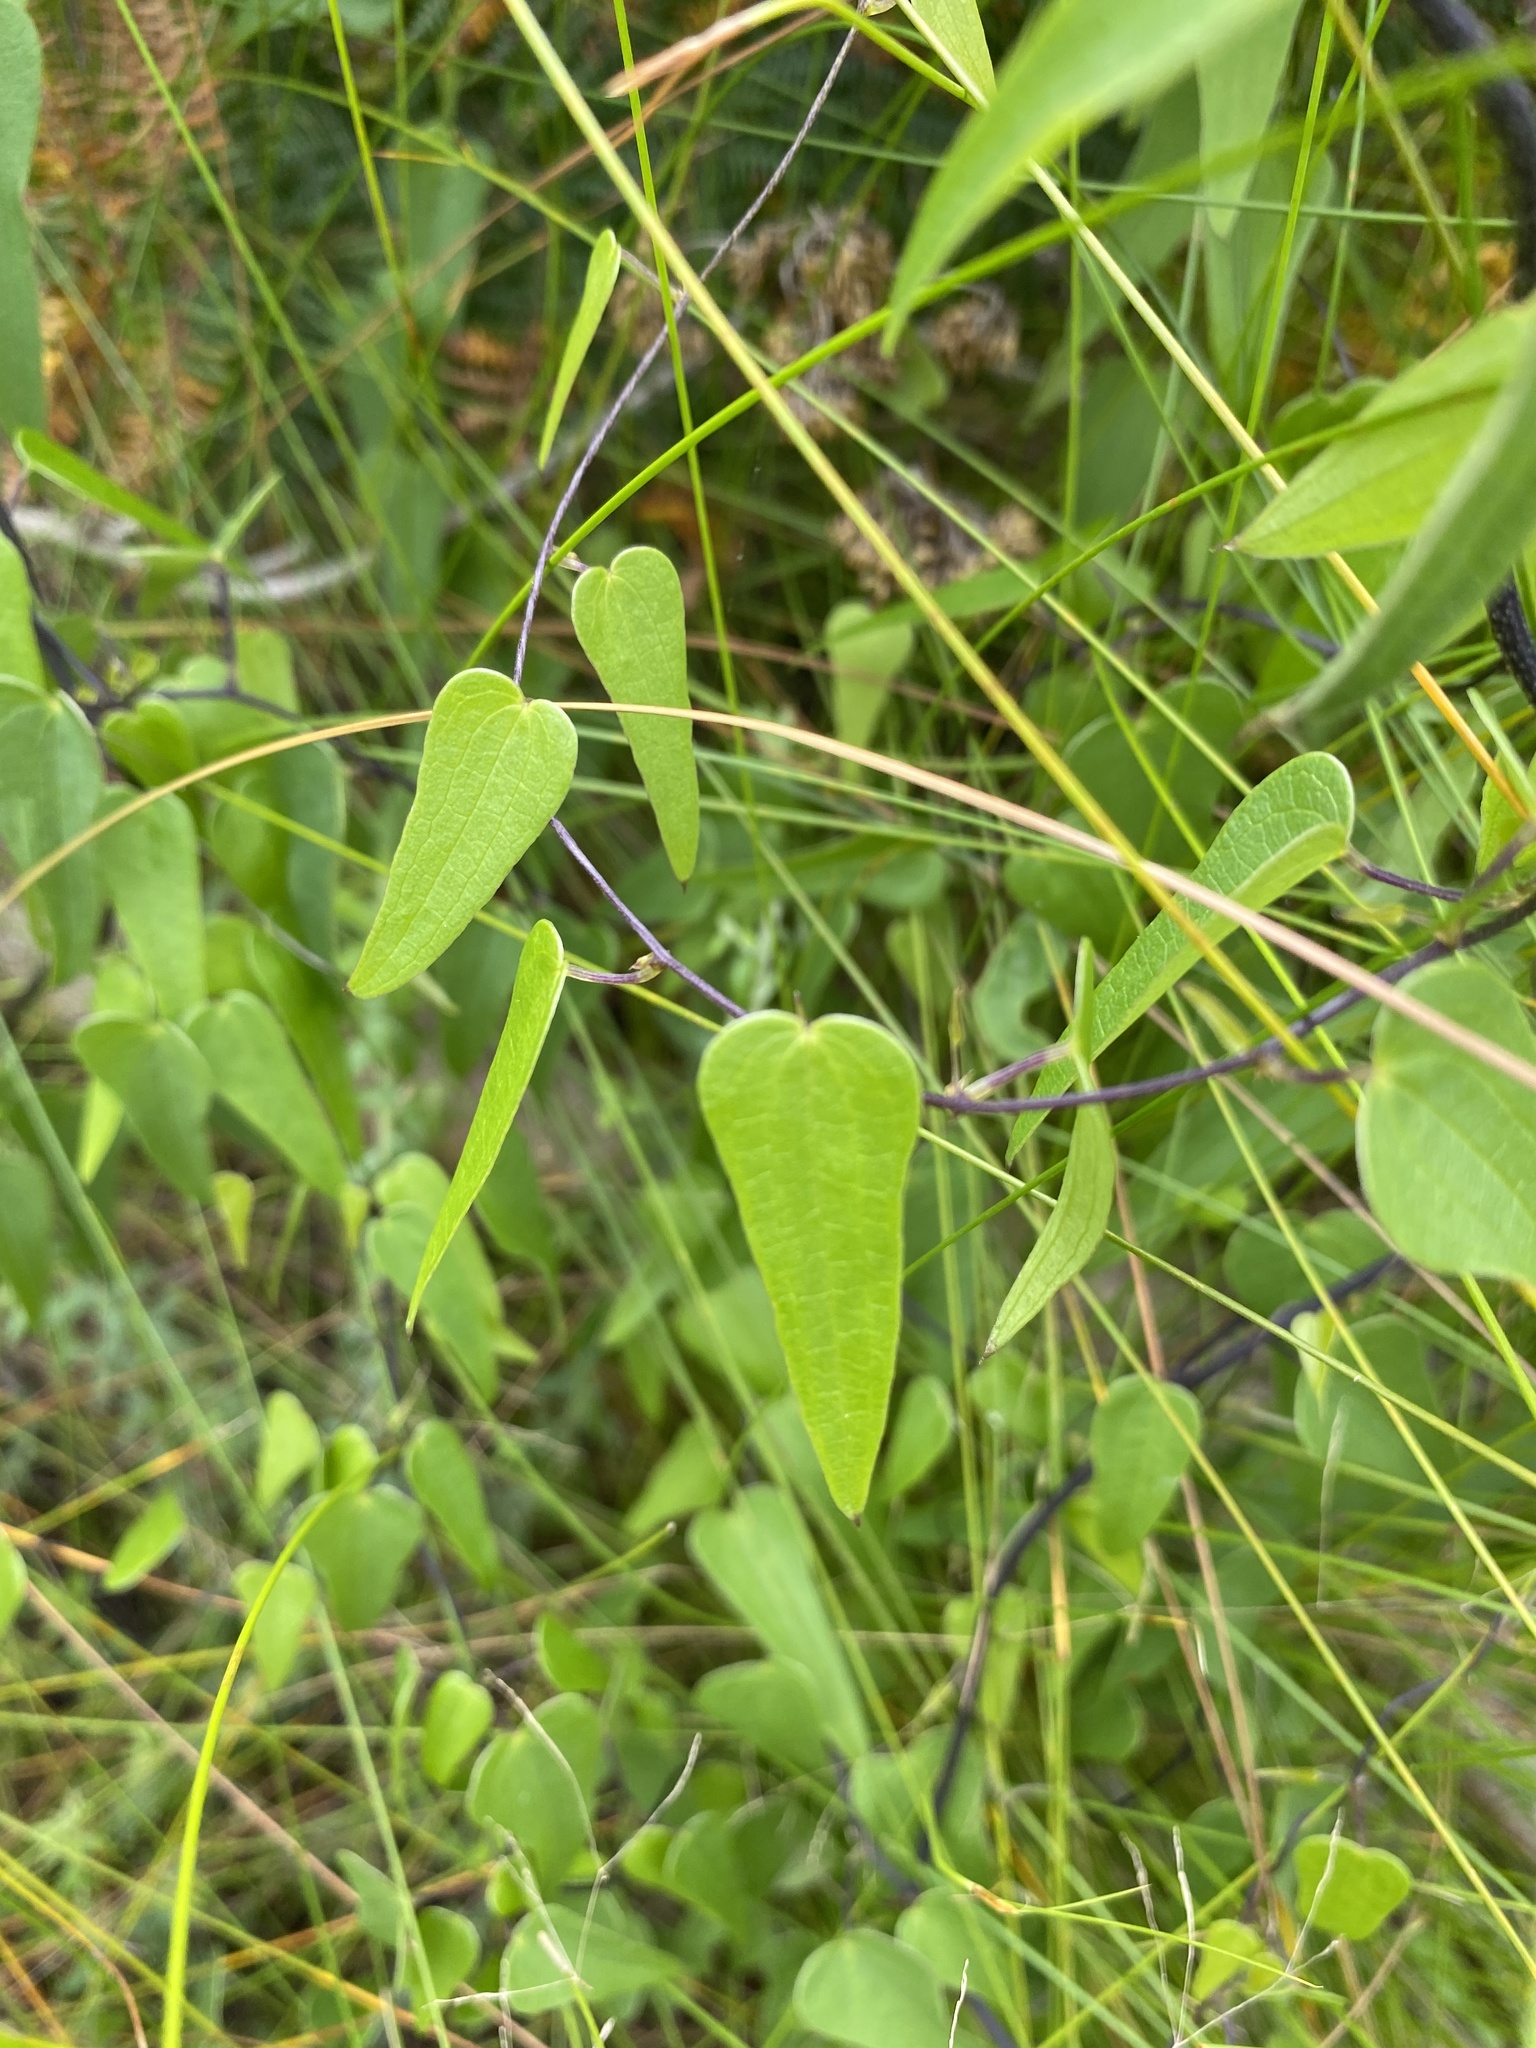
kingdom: Plantae
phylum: Tracheophyta
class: Liliopsida
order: Dioscoreales
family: Dioscoreaceae
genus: Dioscorea
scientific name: Dioscorea burchellii
